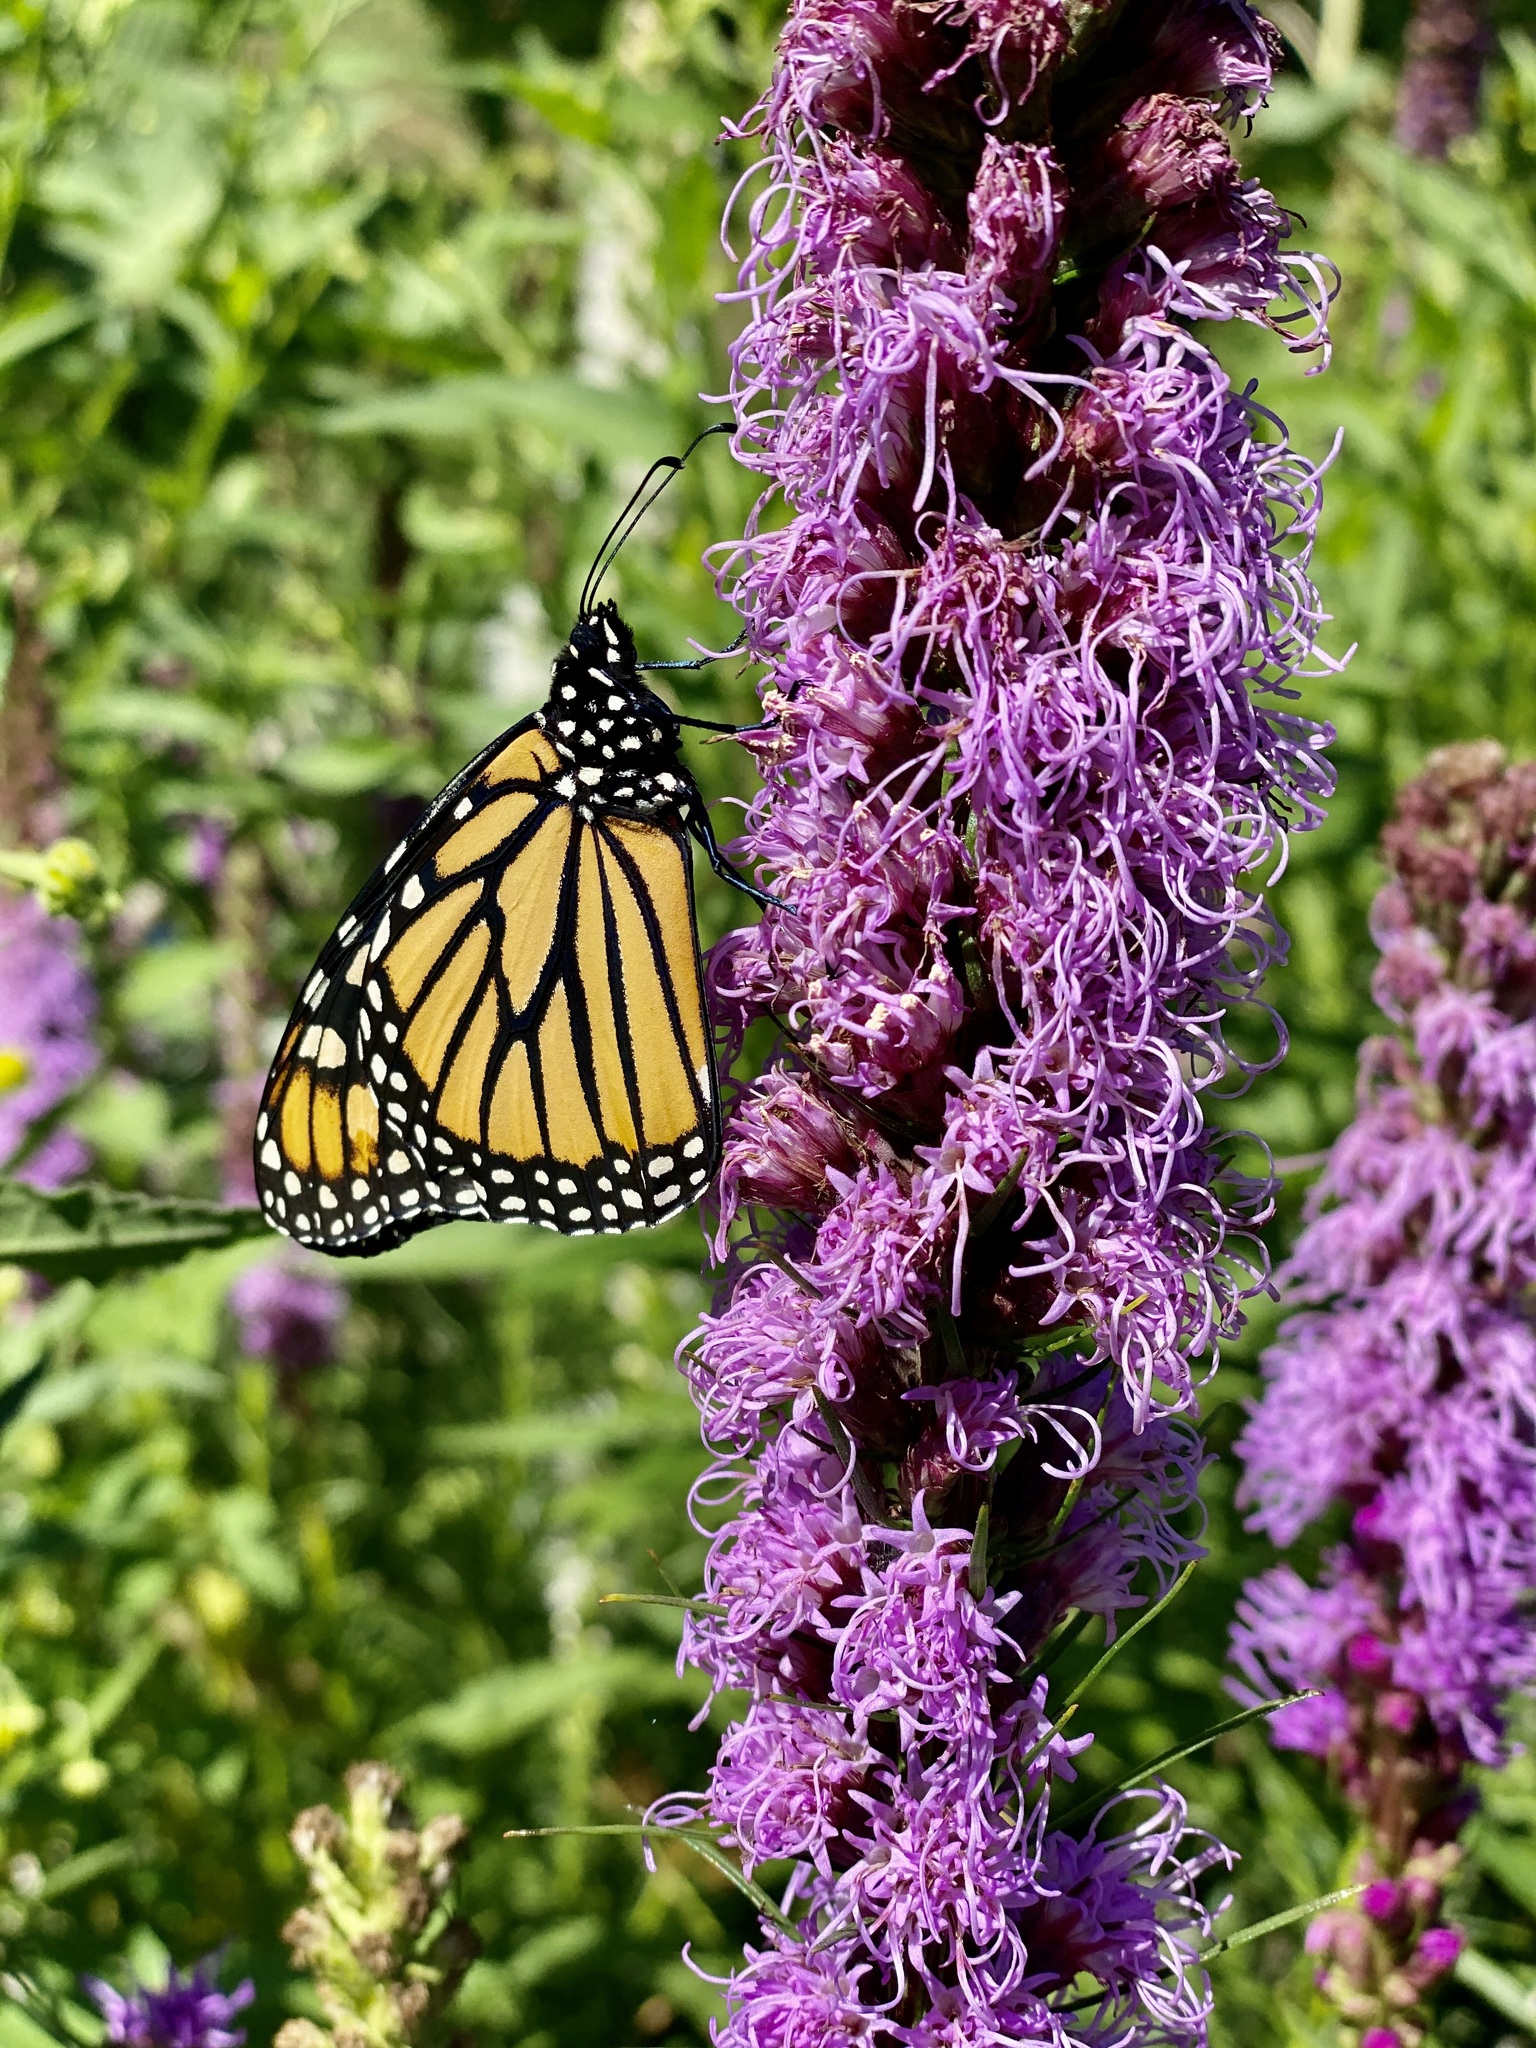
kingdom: Animalia
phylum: Arthropoda
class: Insecta
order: Lepidoptera
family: Nymphalidae
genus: Danaus
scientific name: Danaus plexippus
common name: Monarch
